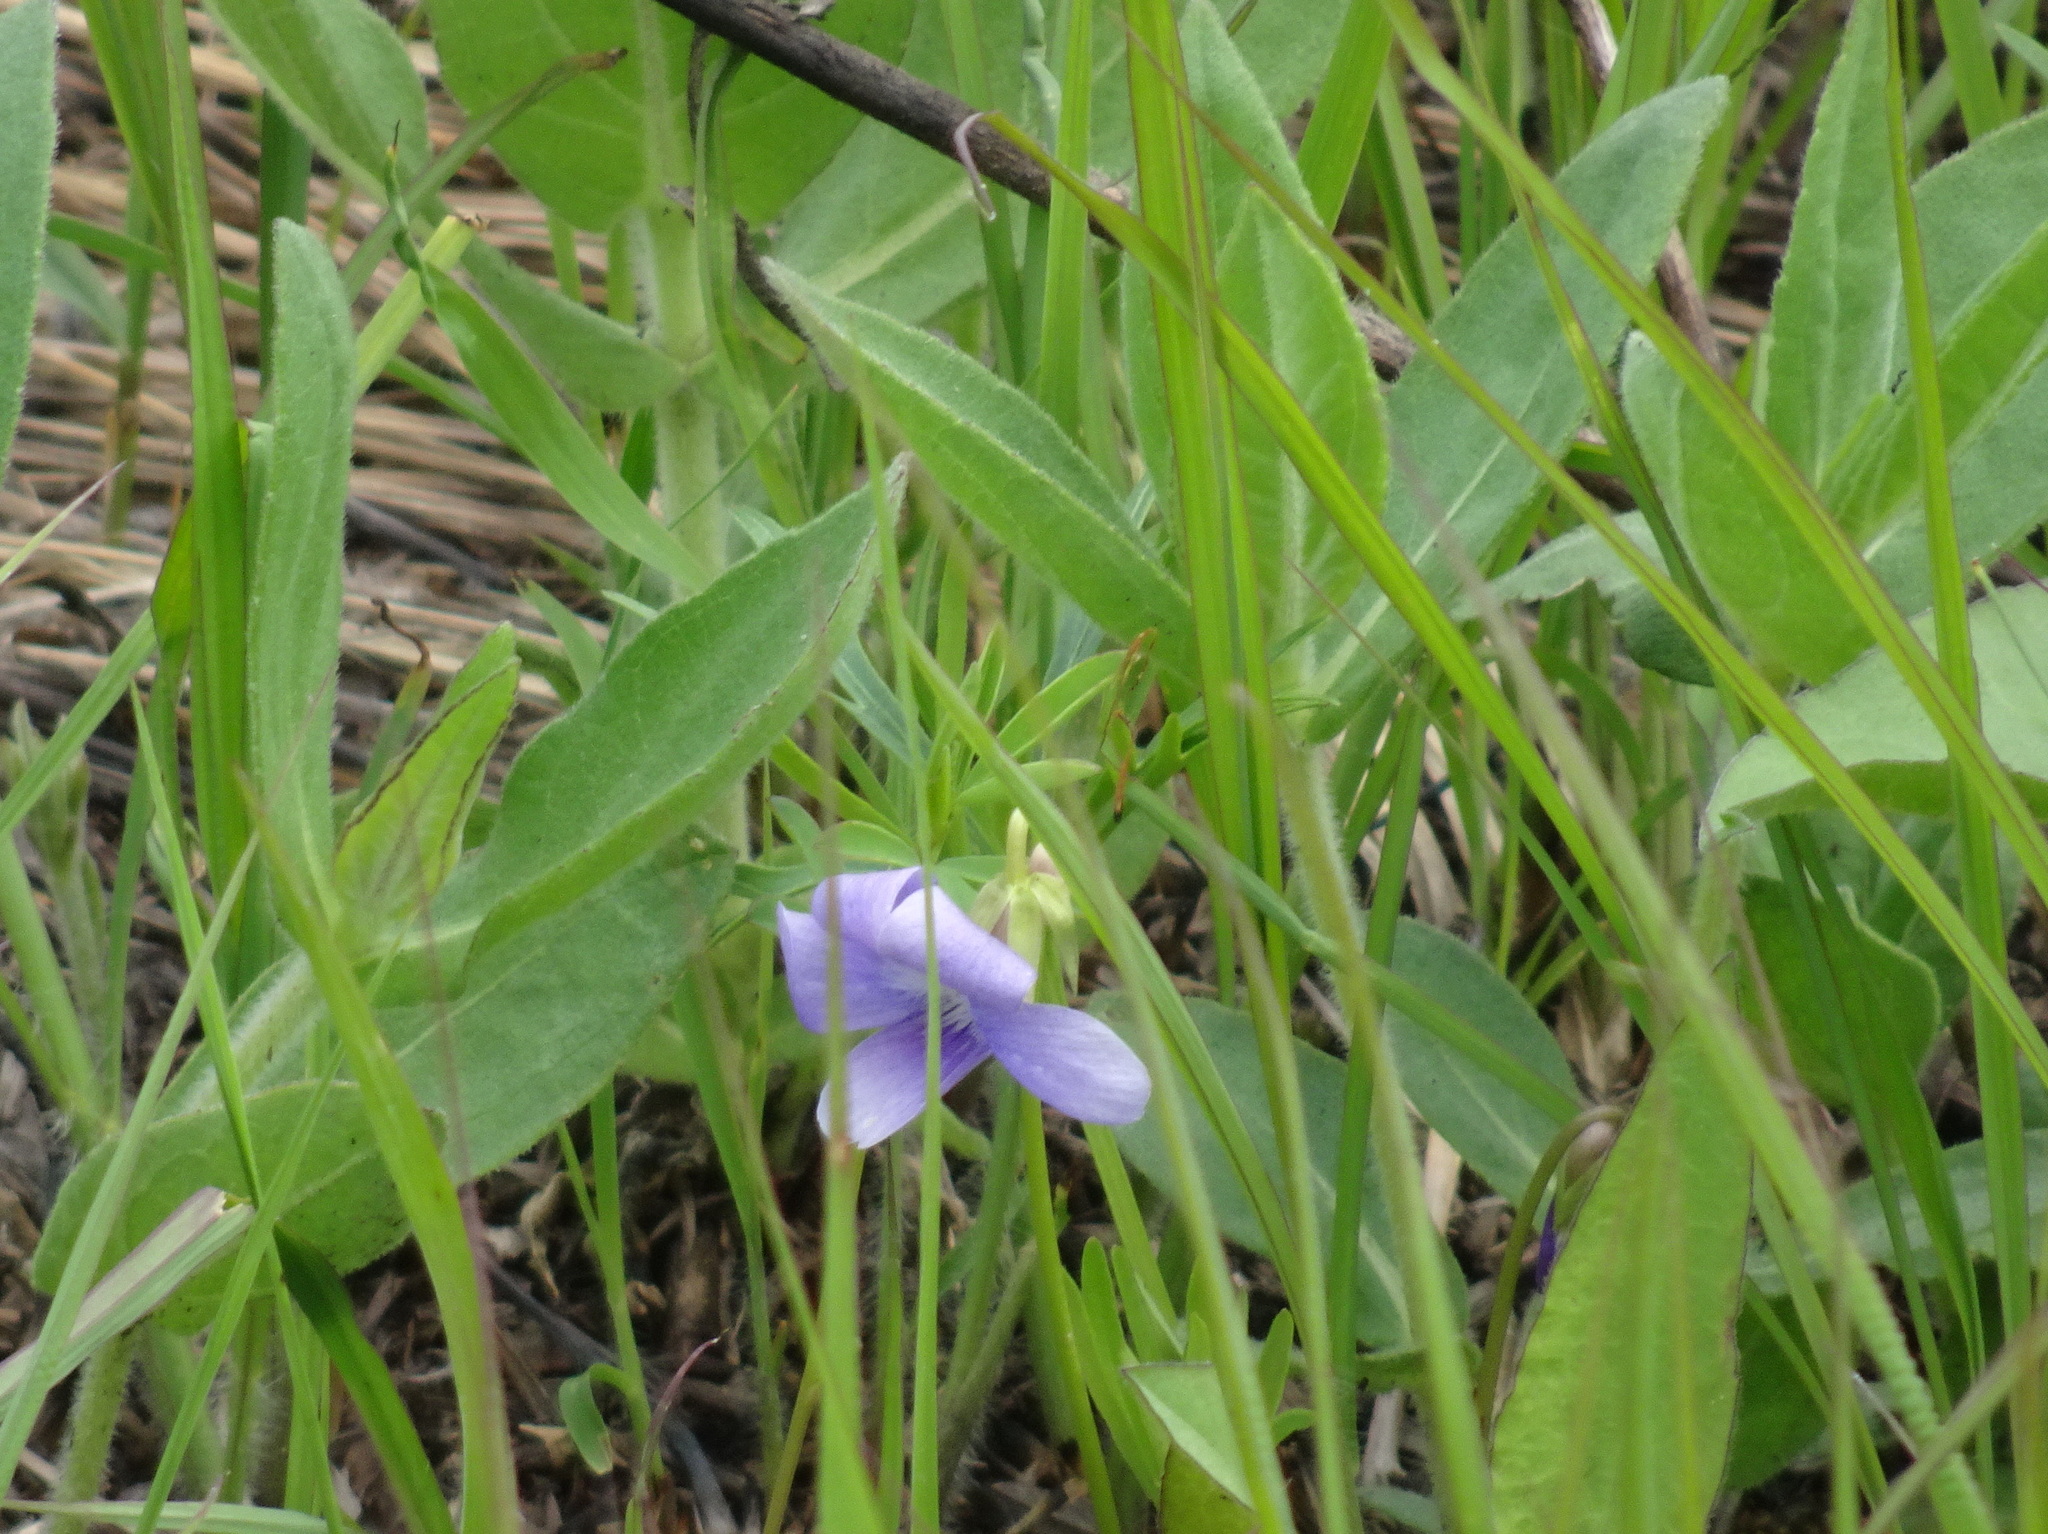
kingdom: Plantae
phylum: Tracheophyta
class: Magnoliopsida
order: Malpighiales
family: Violaceae
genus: Viola
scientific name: Viola pedatifida
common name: Prairie violet
